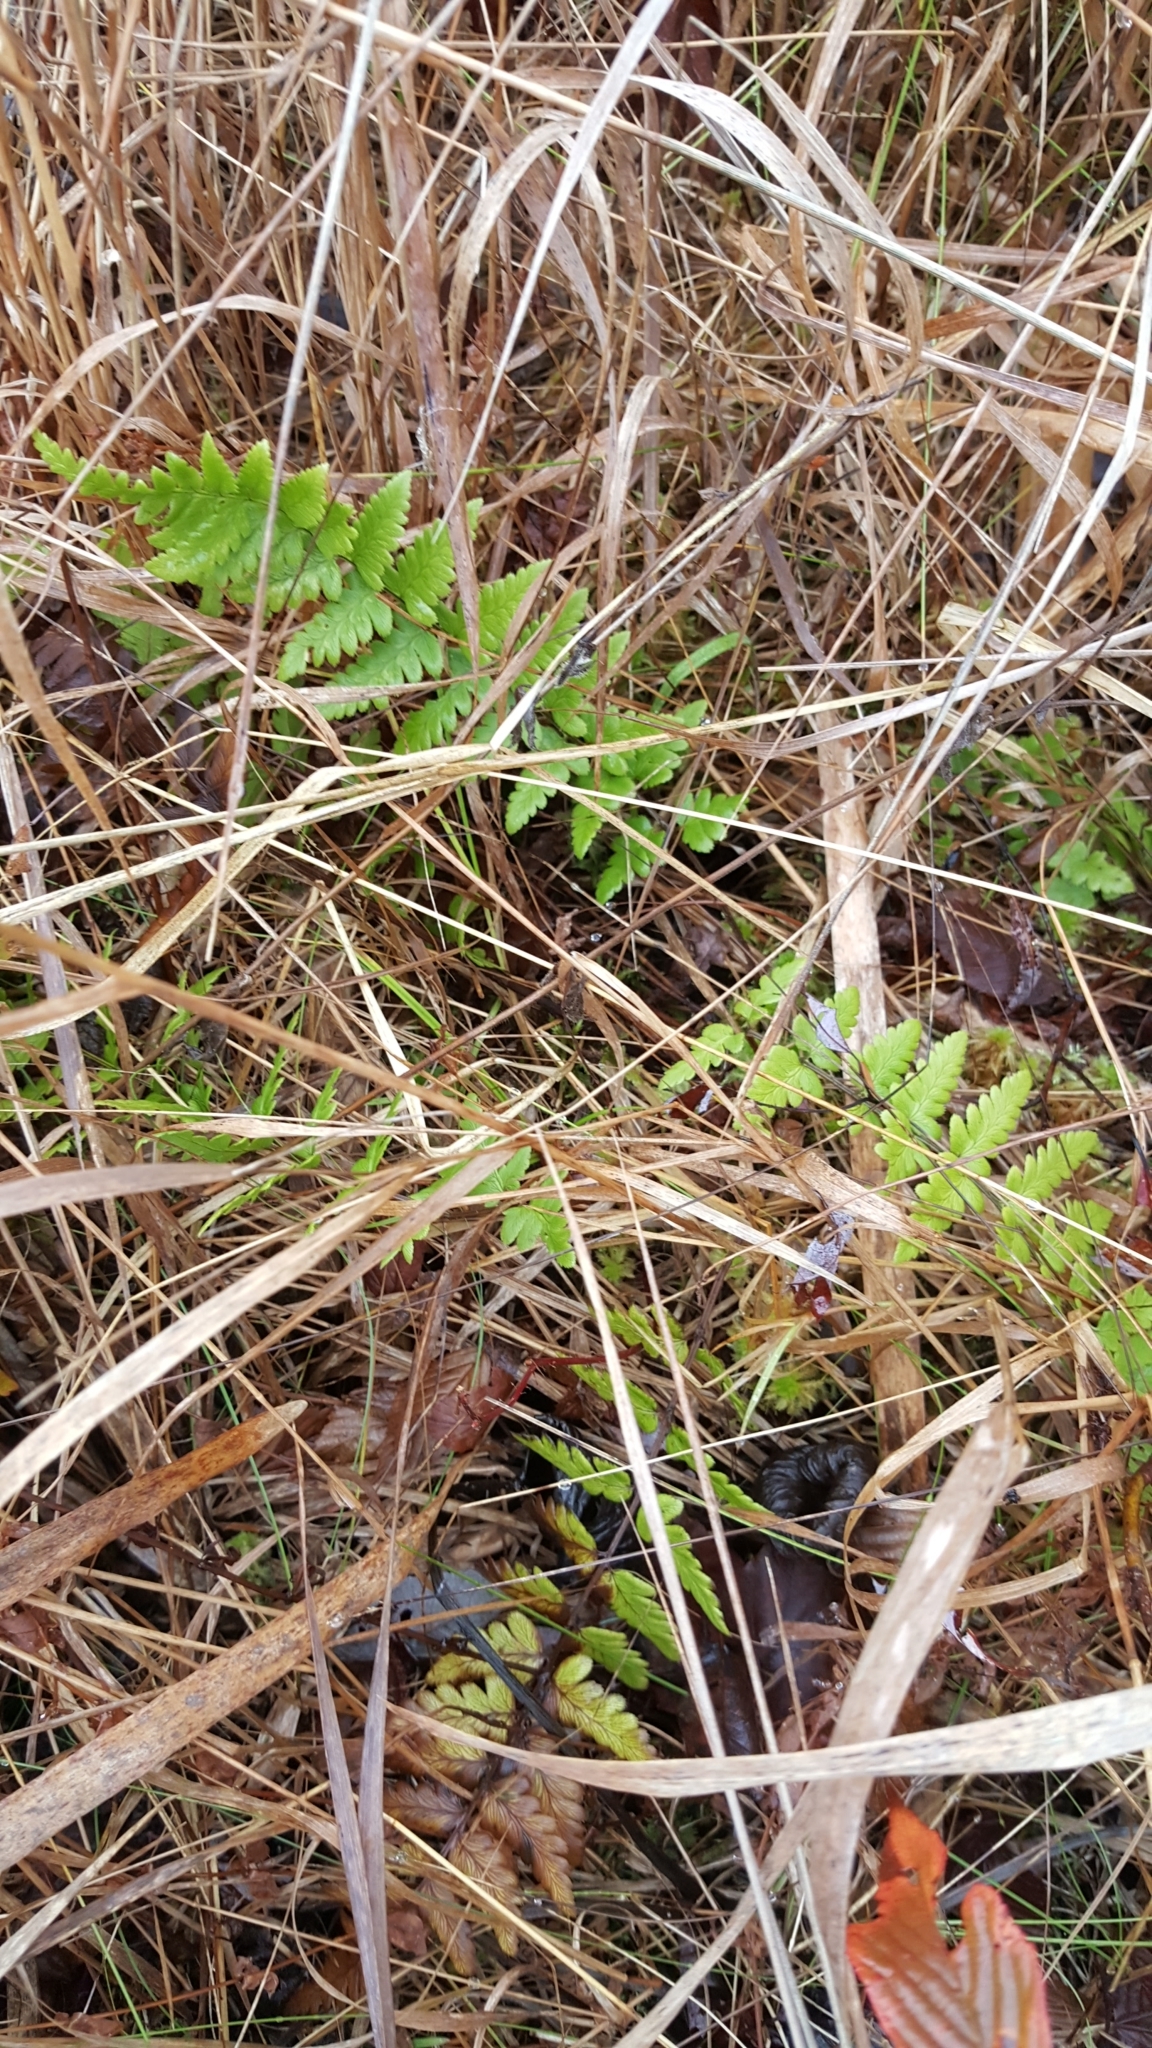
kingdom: Plantae
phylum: Tracheophyta
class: Polypodiopsida
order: Polypodiales
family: Dryopteridaceae
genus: Dryopteris
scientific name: Dryopteris cristata
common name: Crested wood fern
